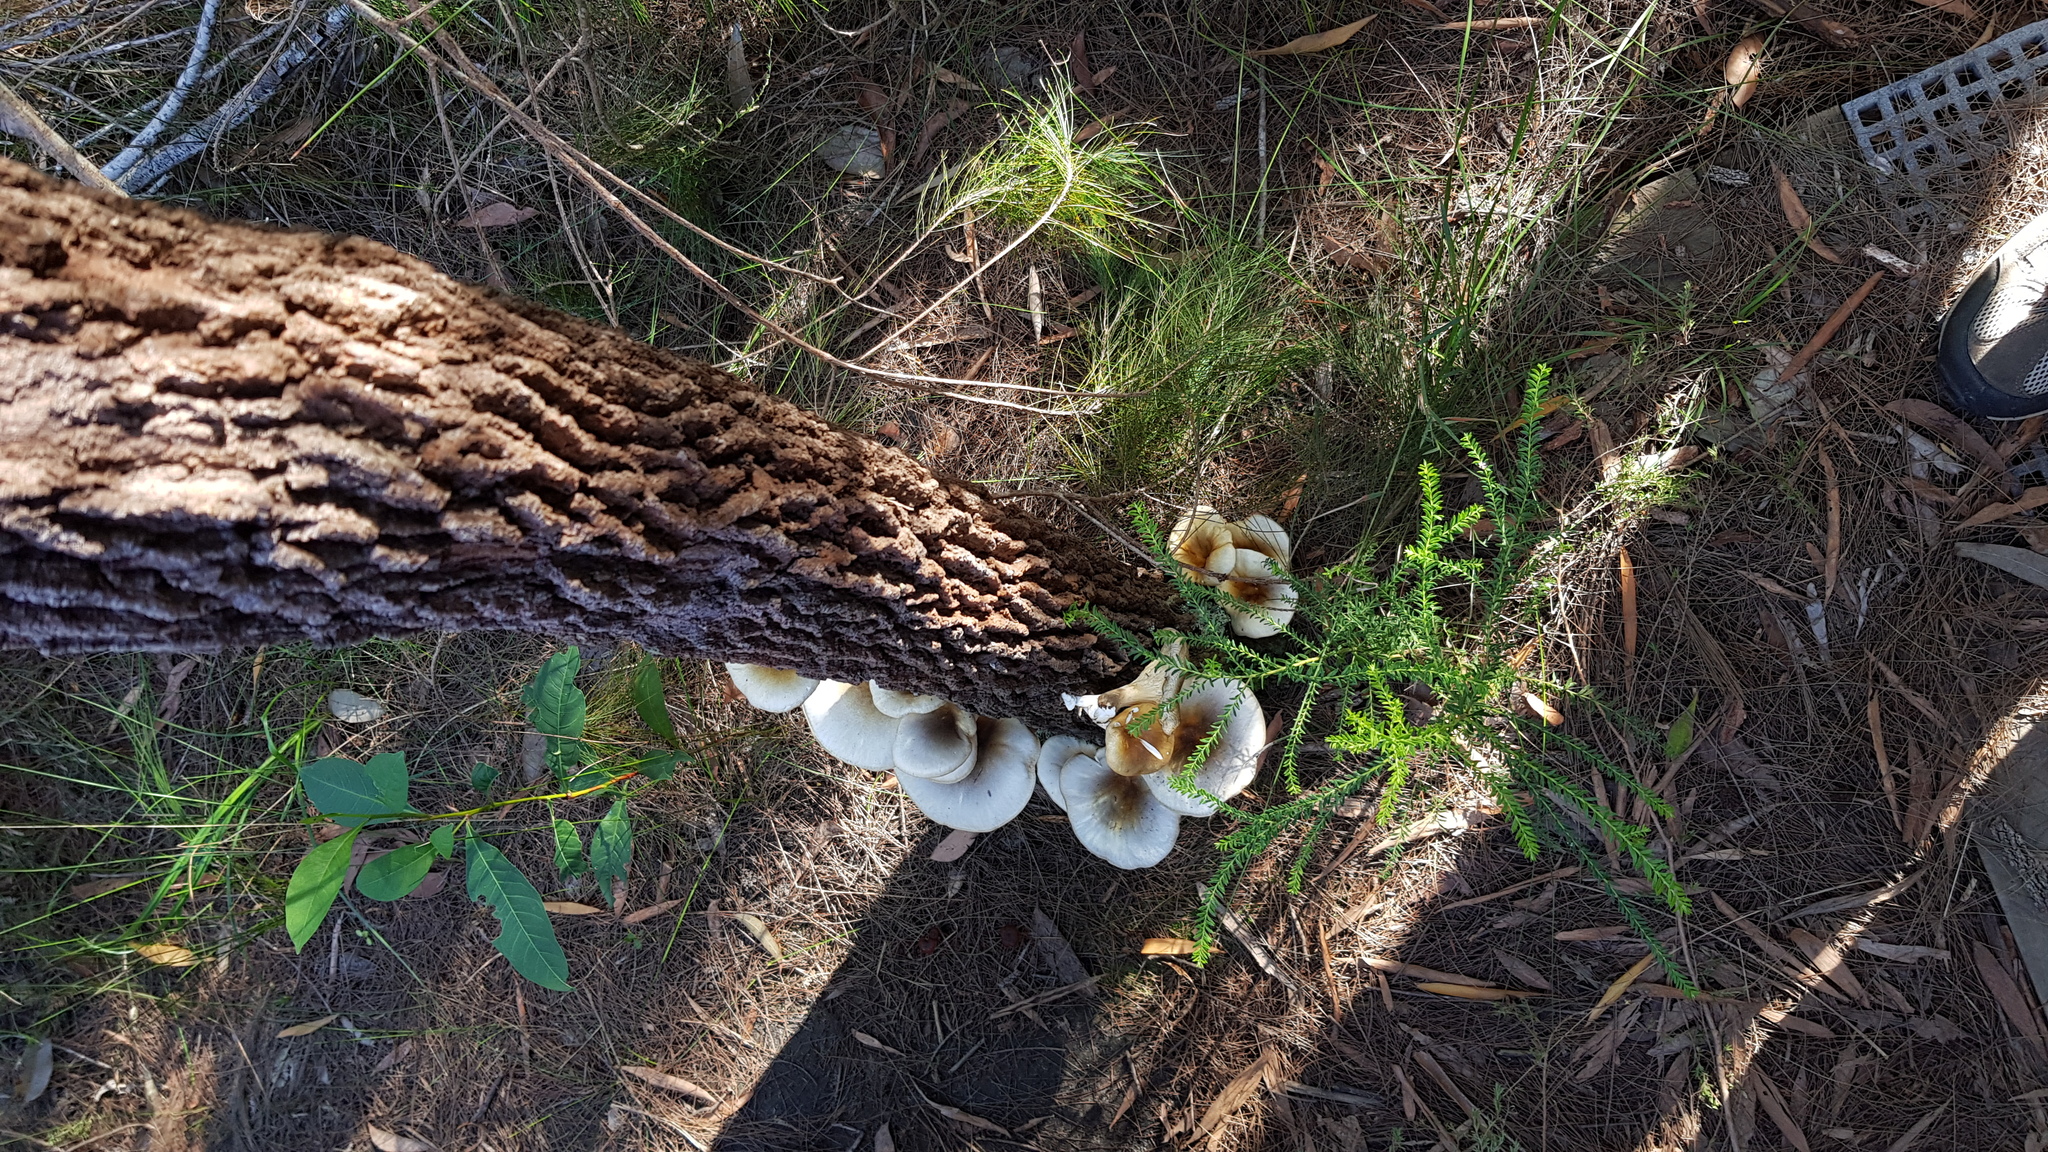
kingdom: Fungi
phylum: Basidiomycota
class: Agaricomycetes
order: Agaricales
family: Omphalotaceae
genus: Omphalotus
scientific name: Omphalotus nidiformis
